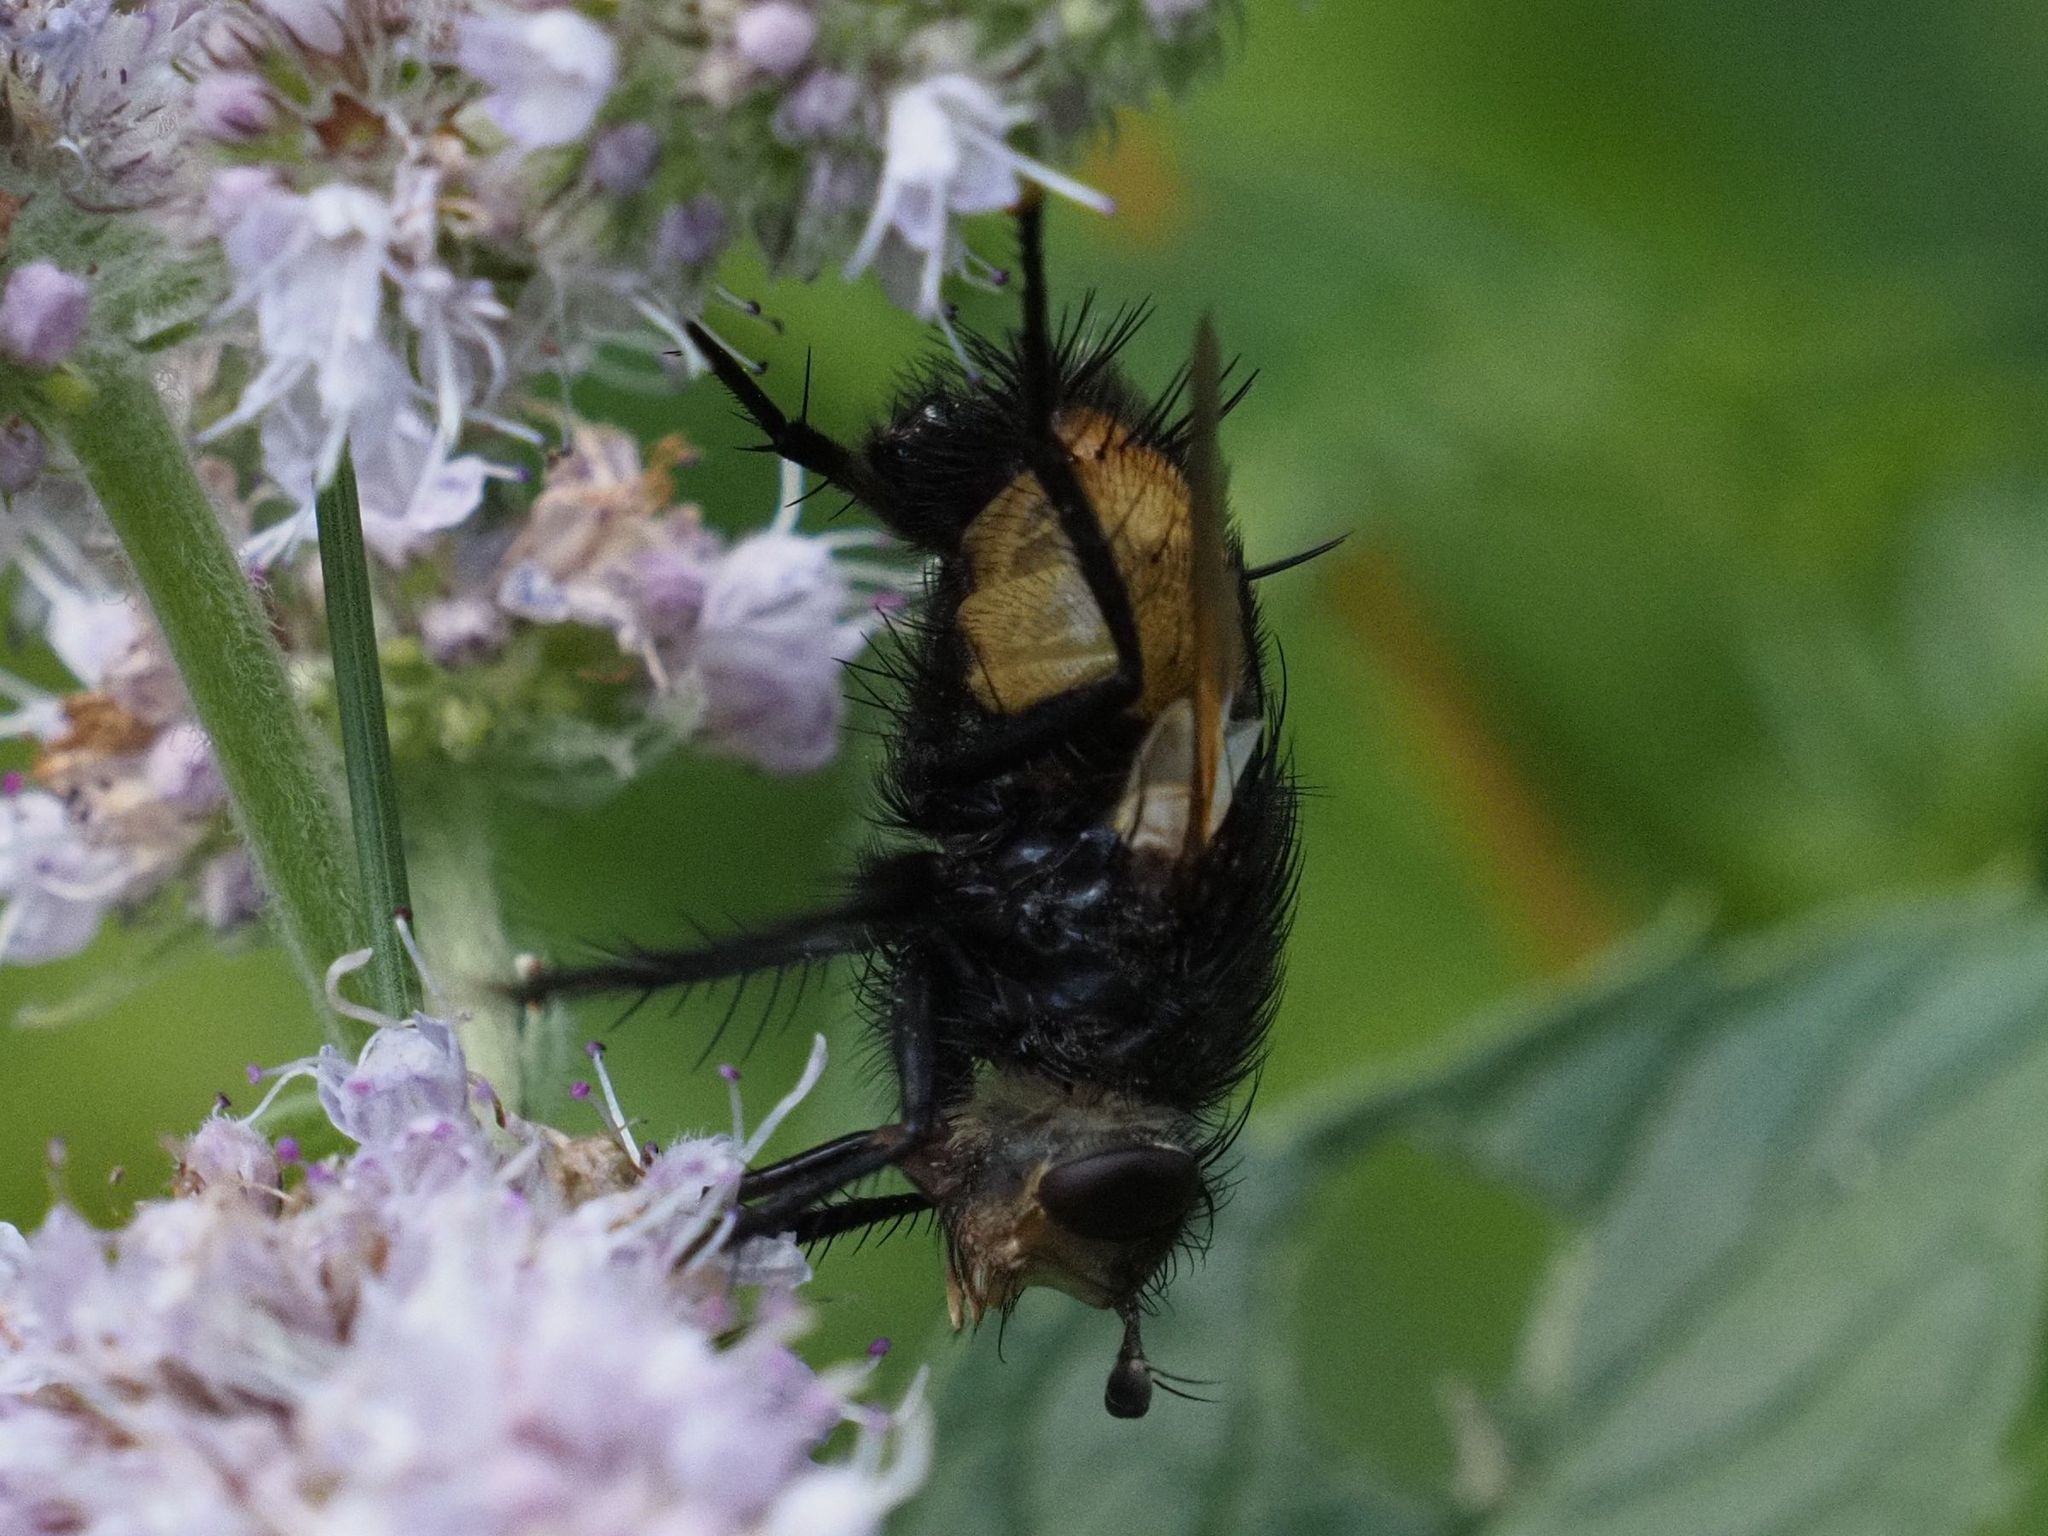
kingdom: Animalia
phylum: Arthropoda
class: Insecta
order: Diptera
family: Tachinidae
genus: Nowickia
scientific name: Nowickia ferox
